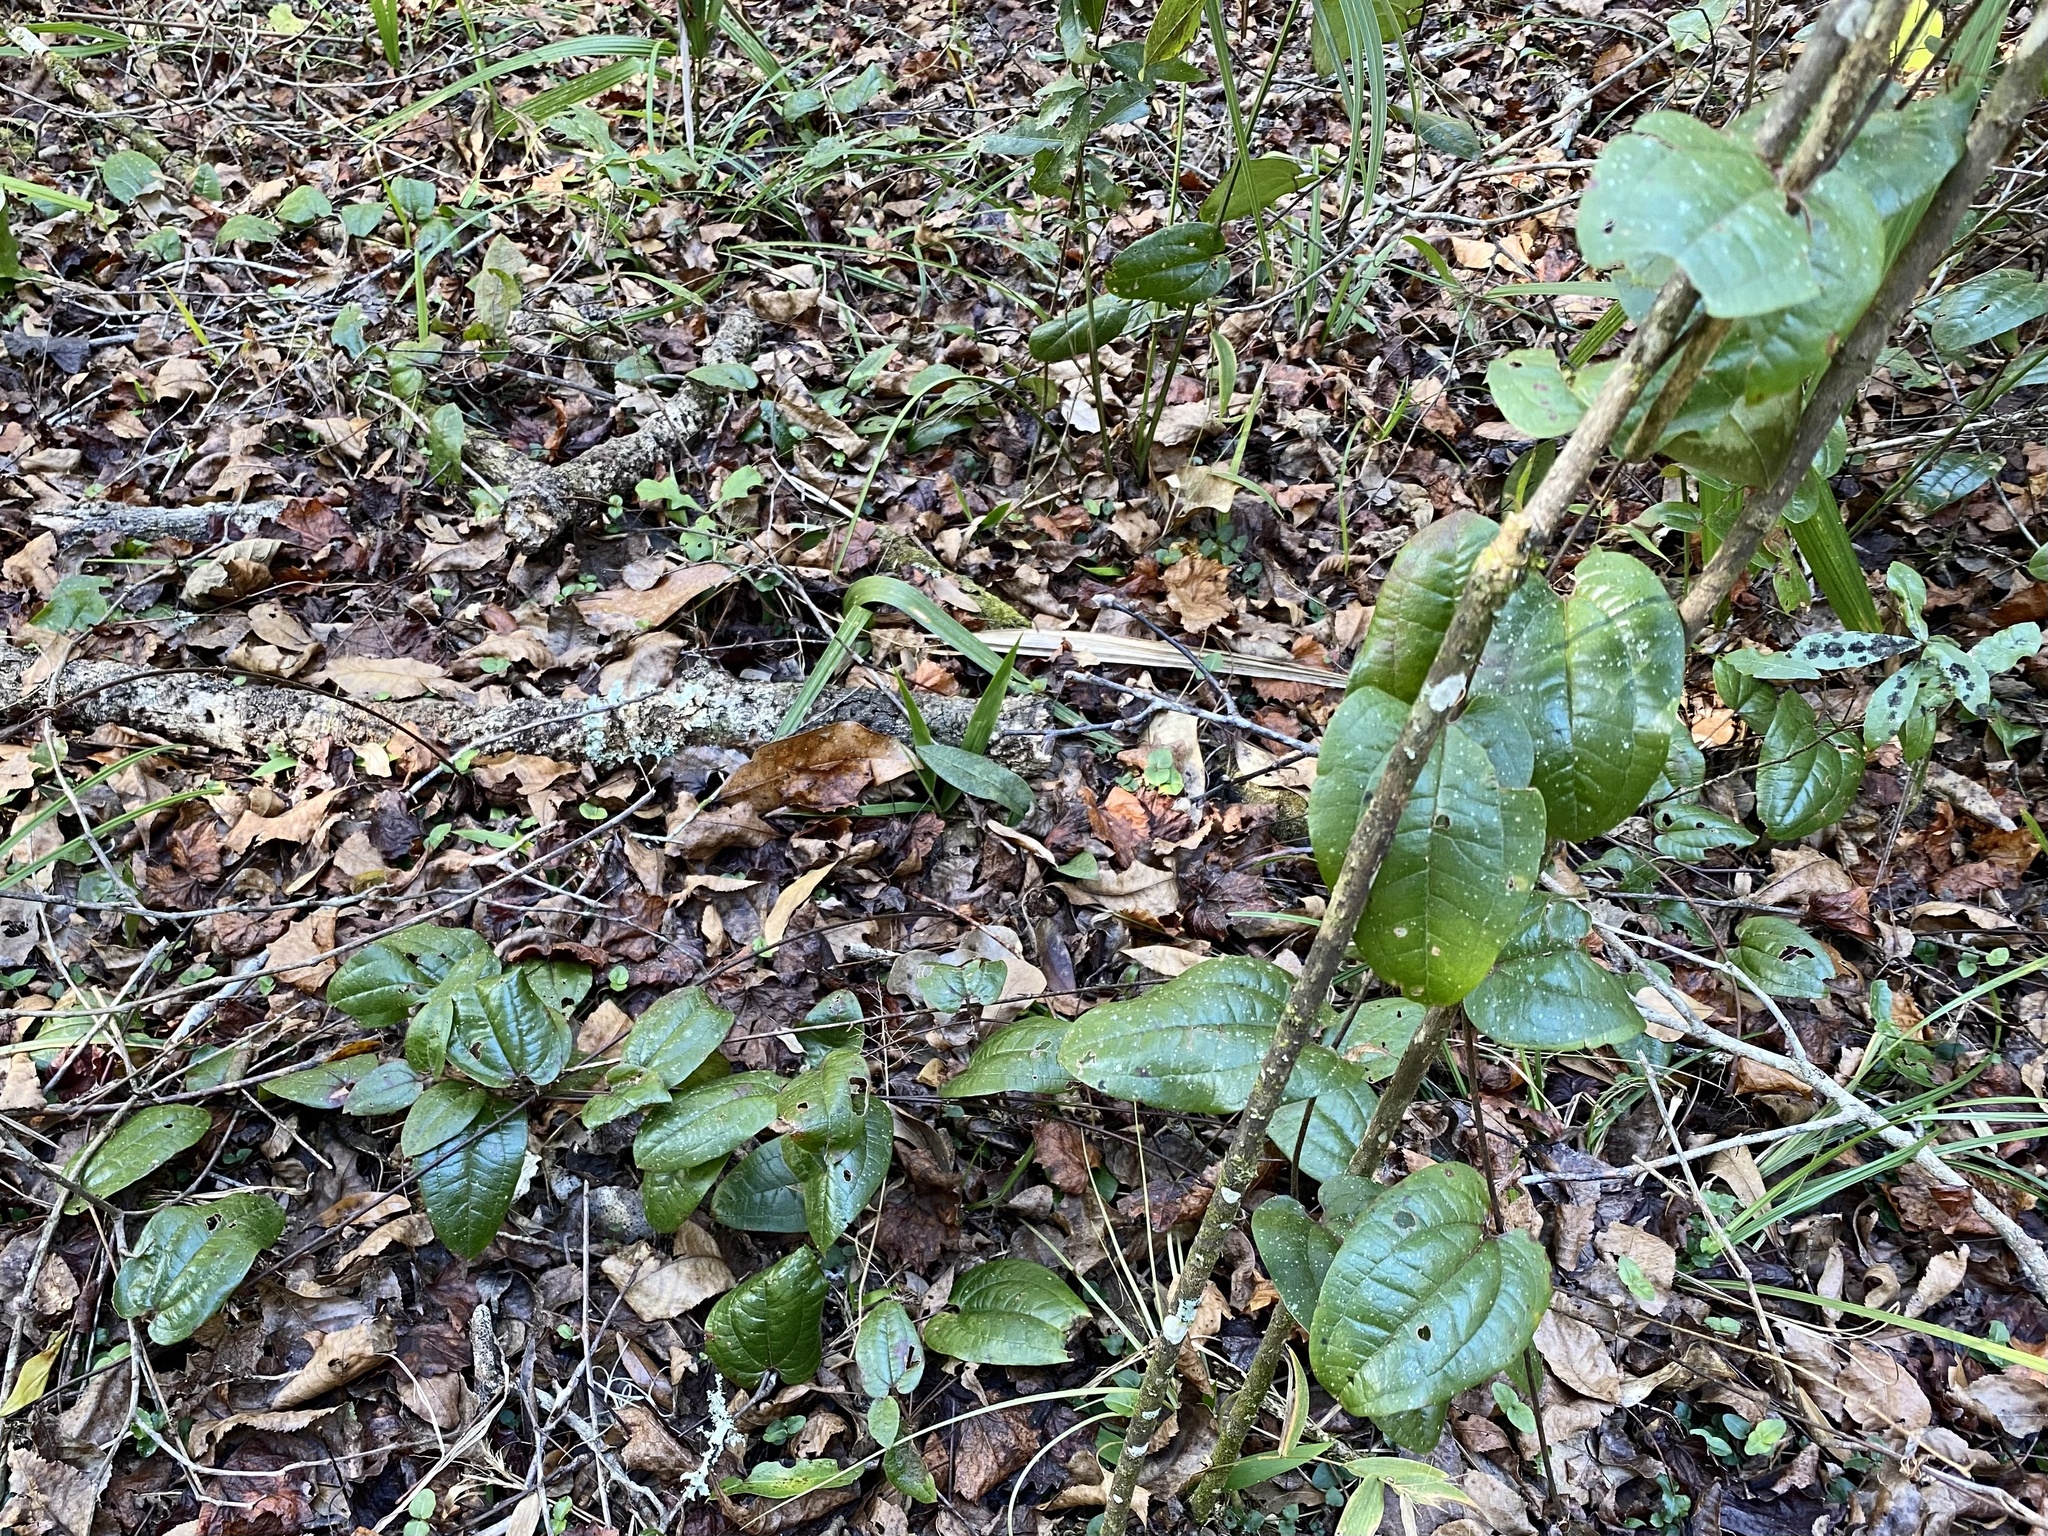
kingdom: Plantae
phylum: Tracheophyta
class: Liliopsida
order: Liliales
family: Smilacaceae
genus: Smilax
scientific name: Smilax pumila
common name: Sarsaparilla-vine
